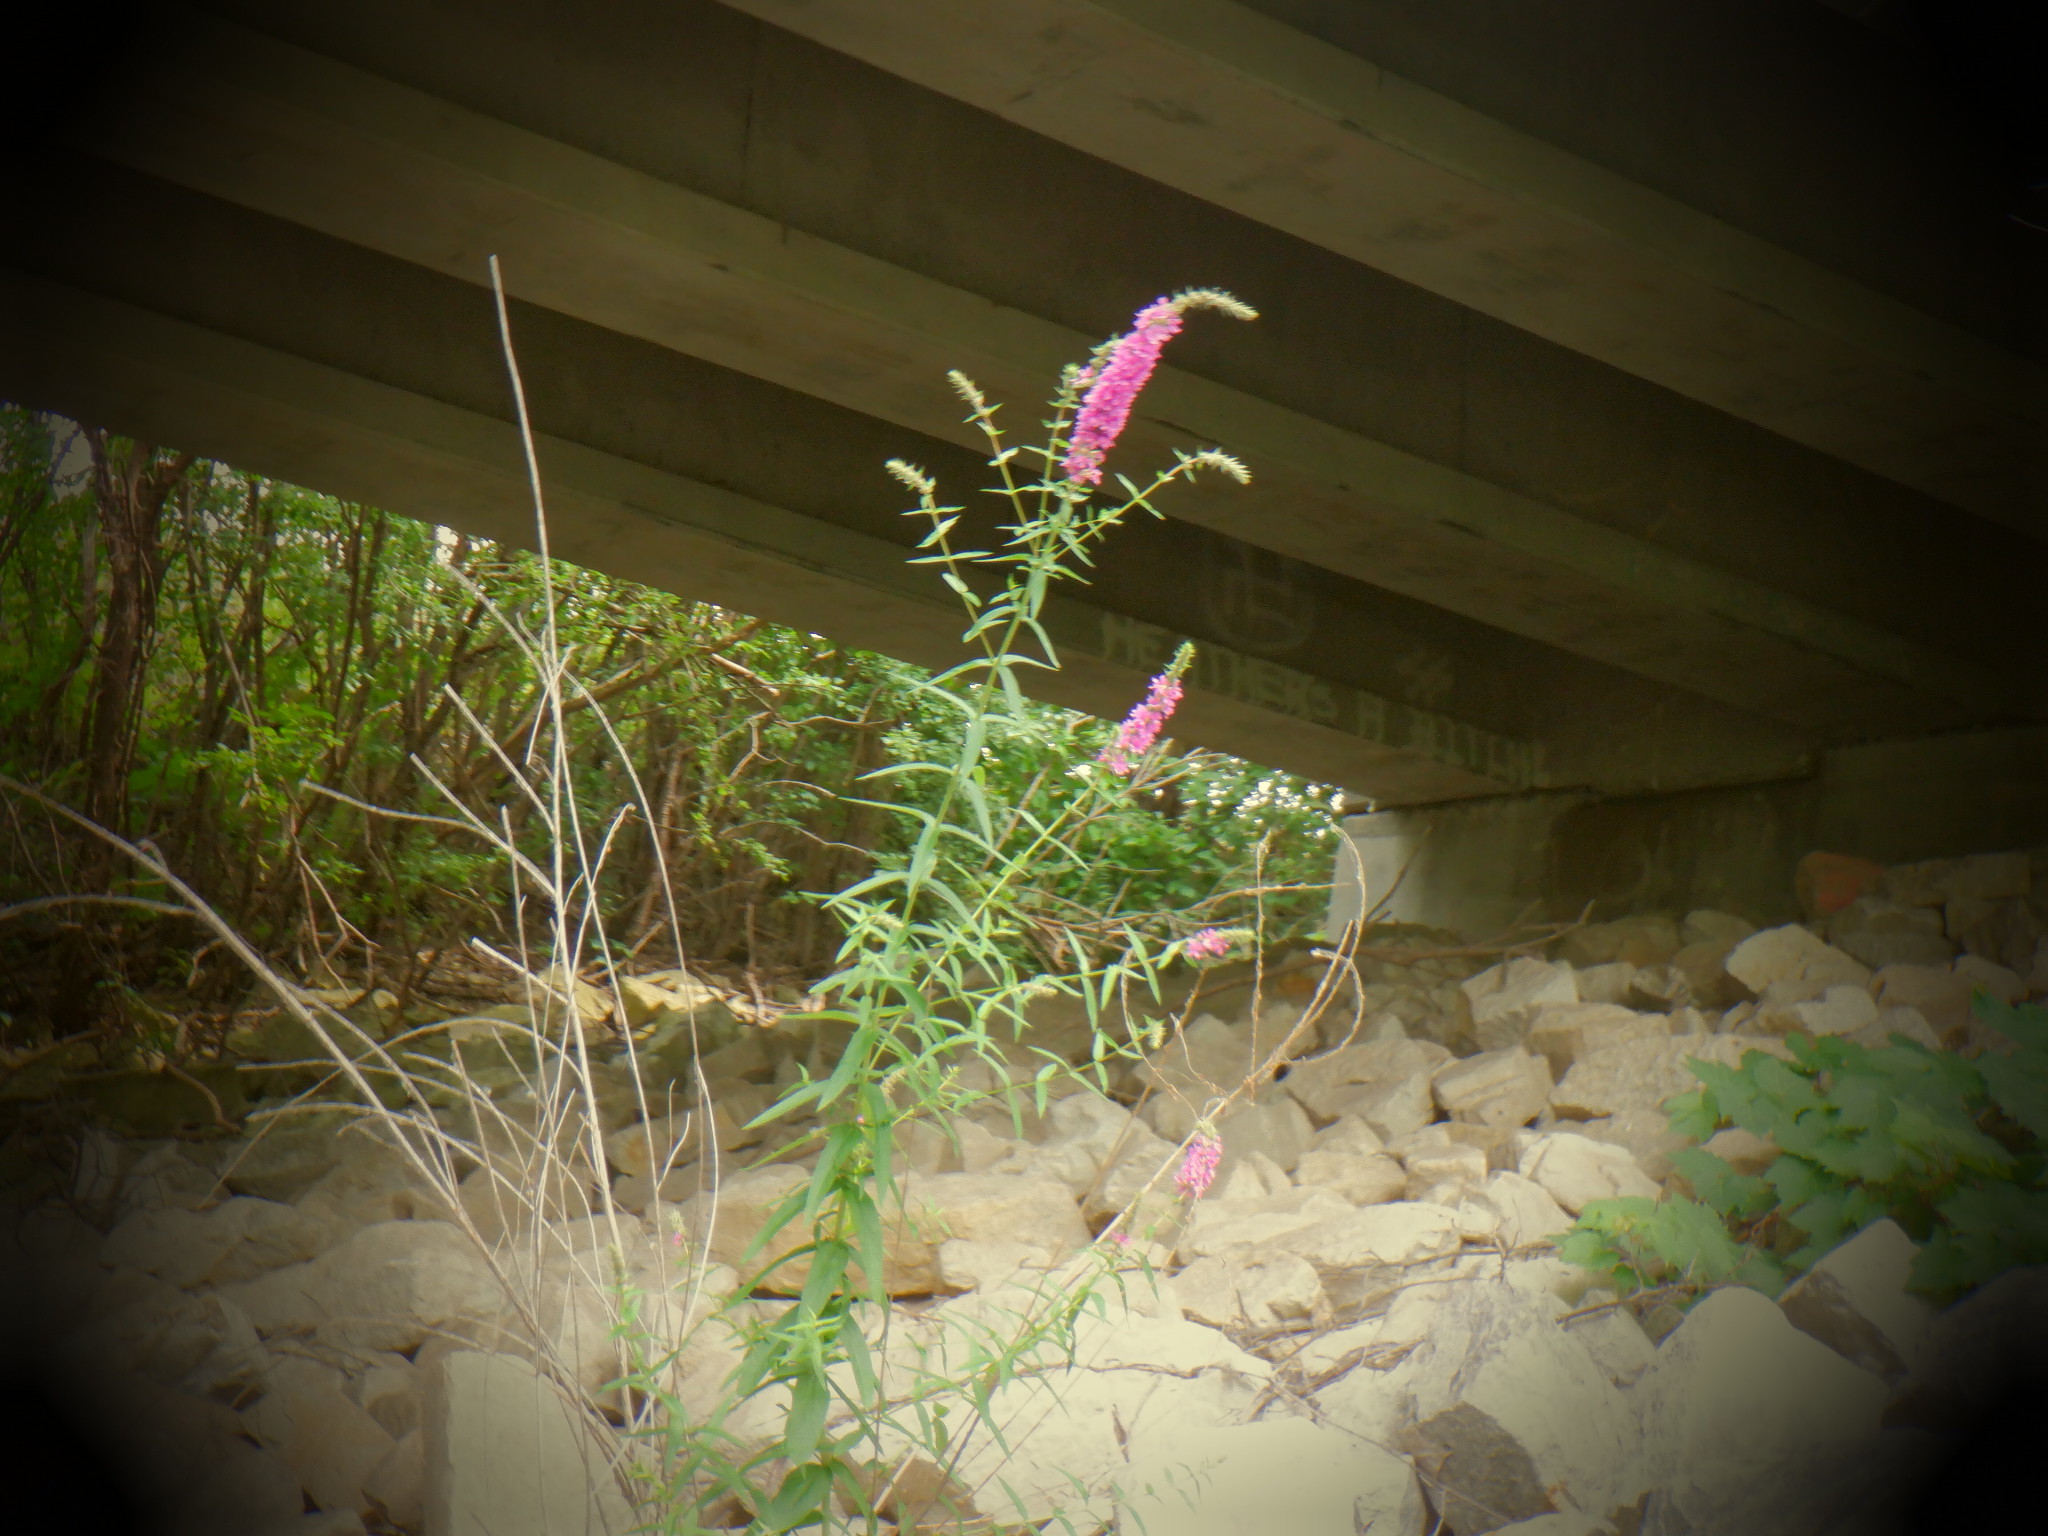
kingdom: Plantae
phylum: Tracheophyta
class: Magnoliopsida
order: Myrtales
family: Lythraceae
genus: Lythrum
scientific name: Lythrum salicaria
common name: Purple loosestrife
